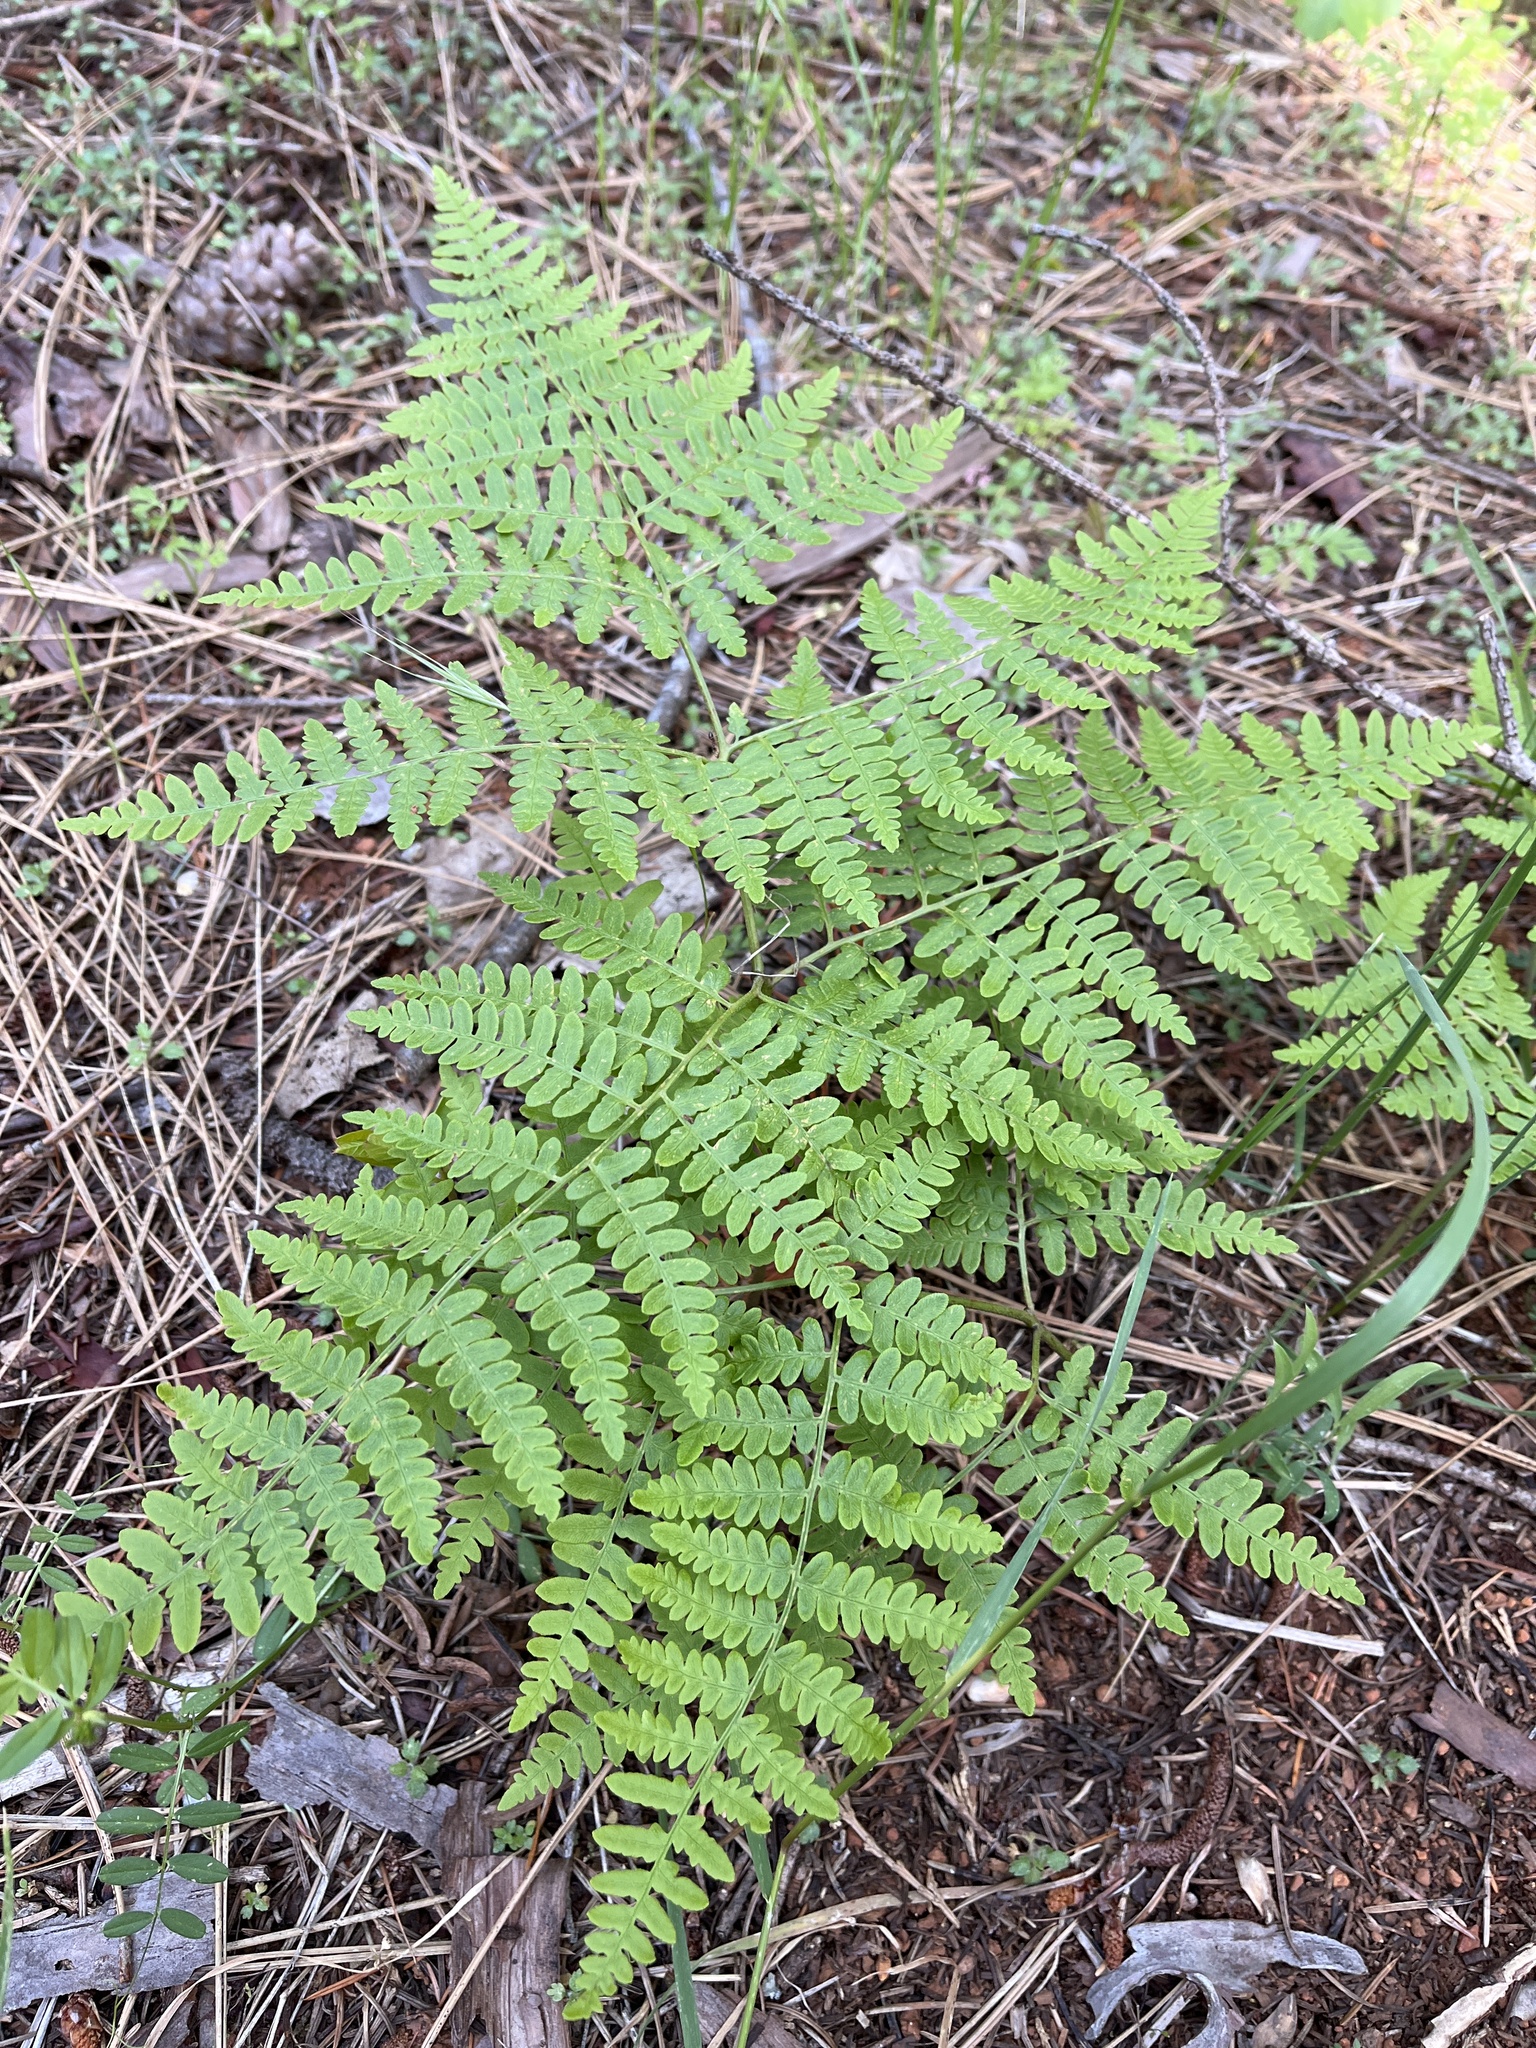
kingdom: Plantae
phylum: Tracheophyta
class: Polypodiopsida
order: Polypodiales
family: Dennstaedtiaceae
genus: Pteridium
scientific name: Pteridium aquilinum
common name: Bracken
